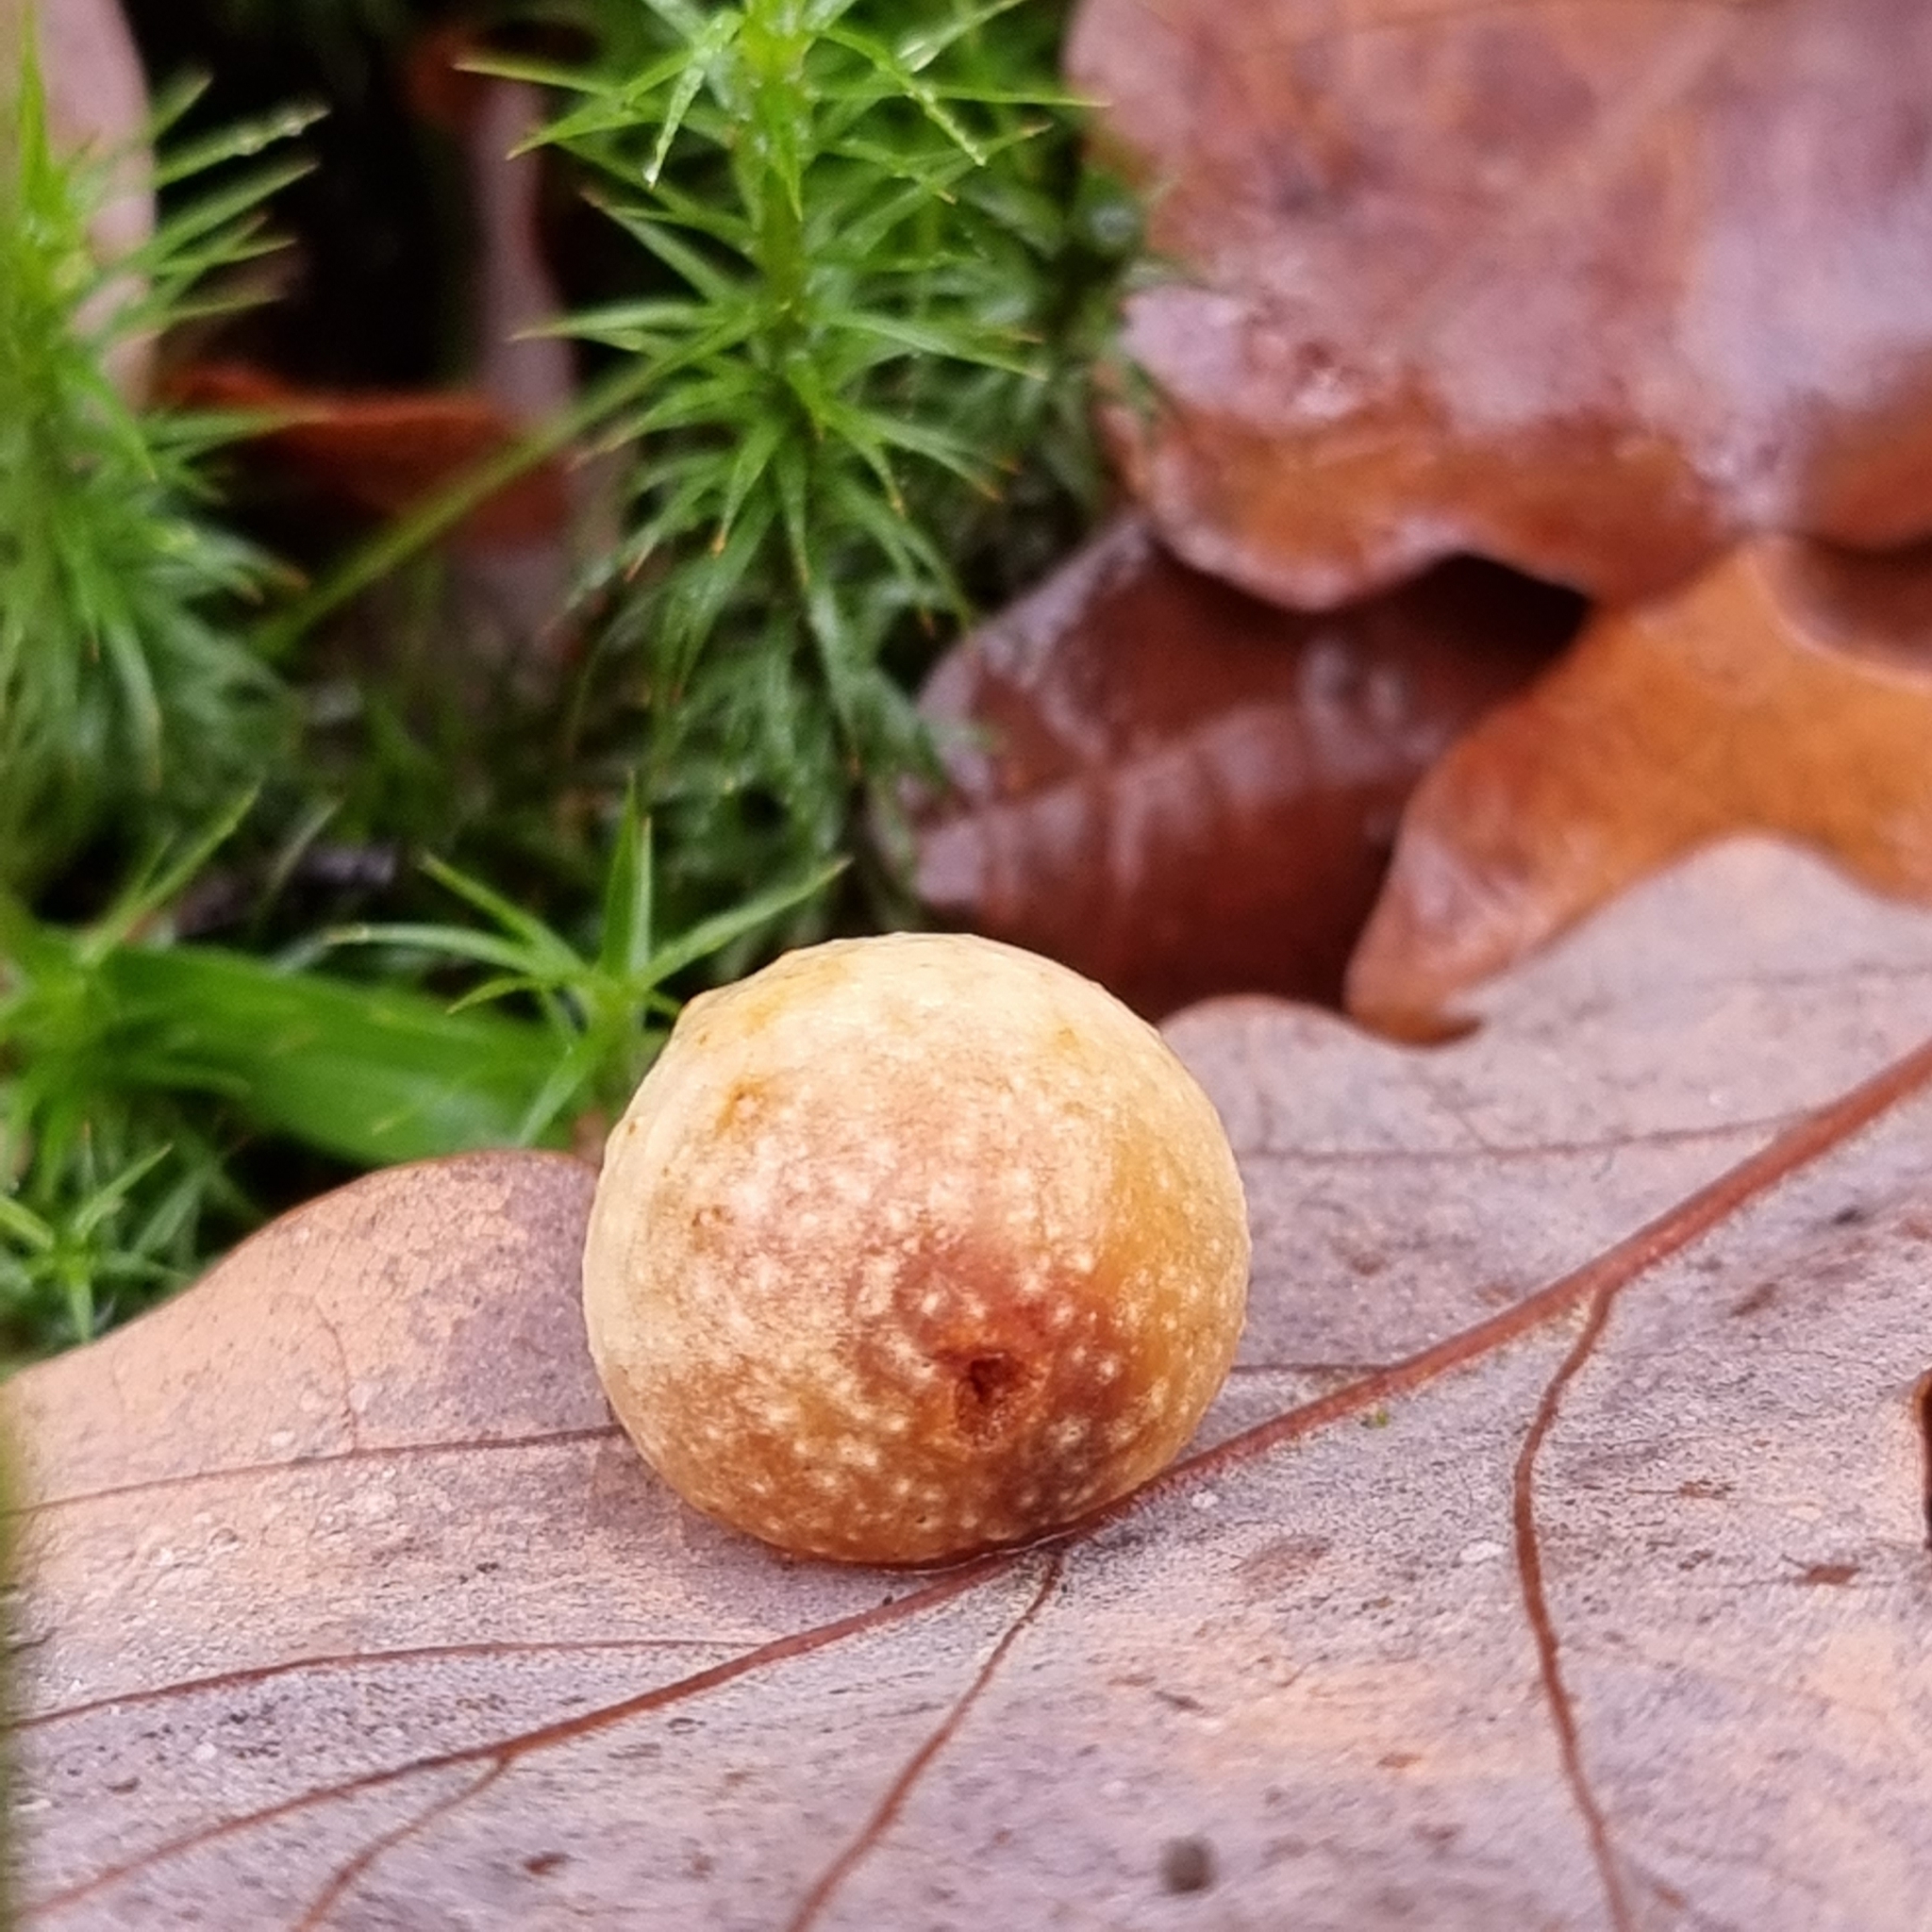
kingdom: Animalia
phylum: Arthropoda
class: Insecta
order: Hymenoptera
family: Cynipidae
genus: Cynips
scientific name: Cynips quercusfolii
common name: Cherry gall
